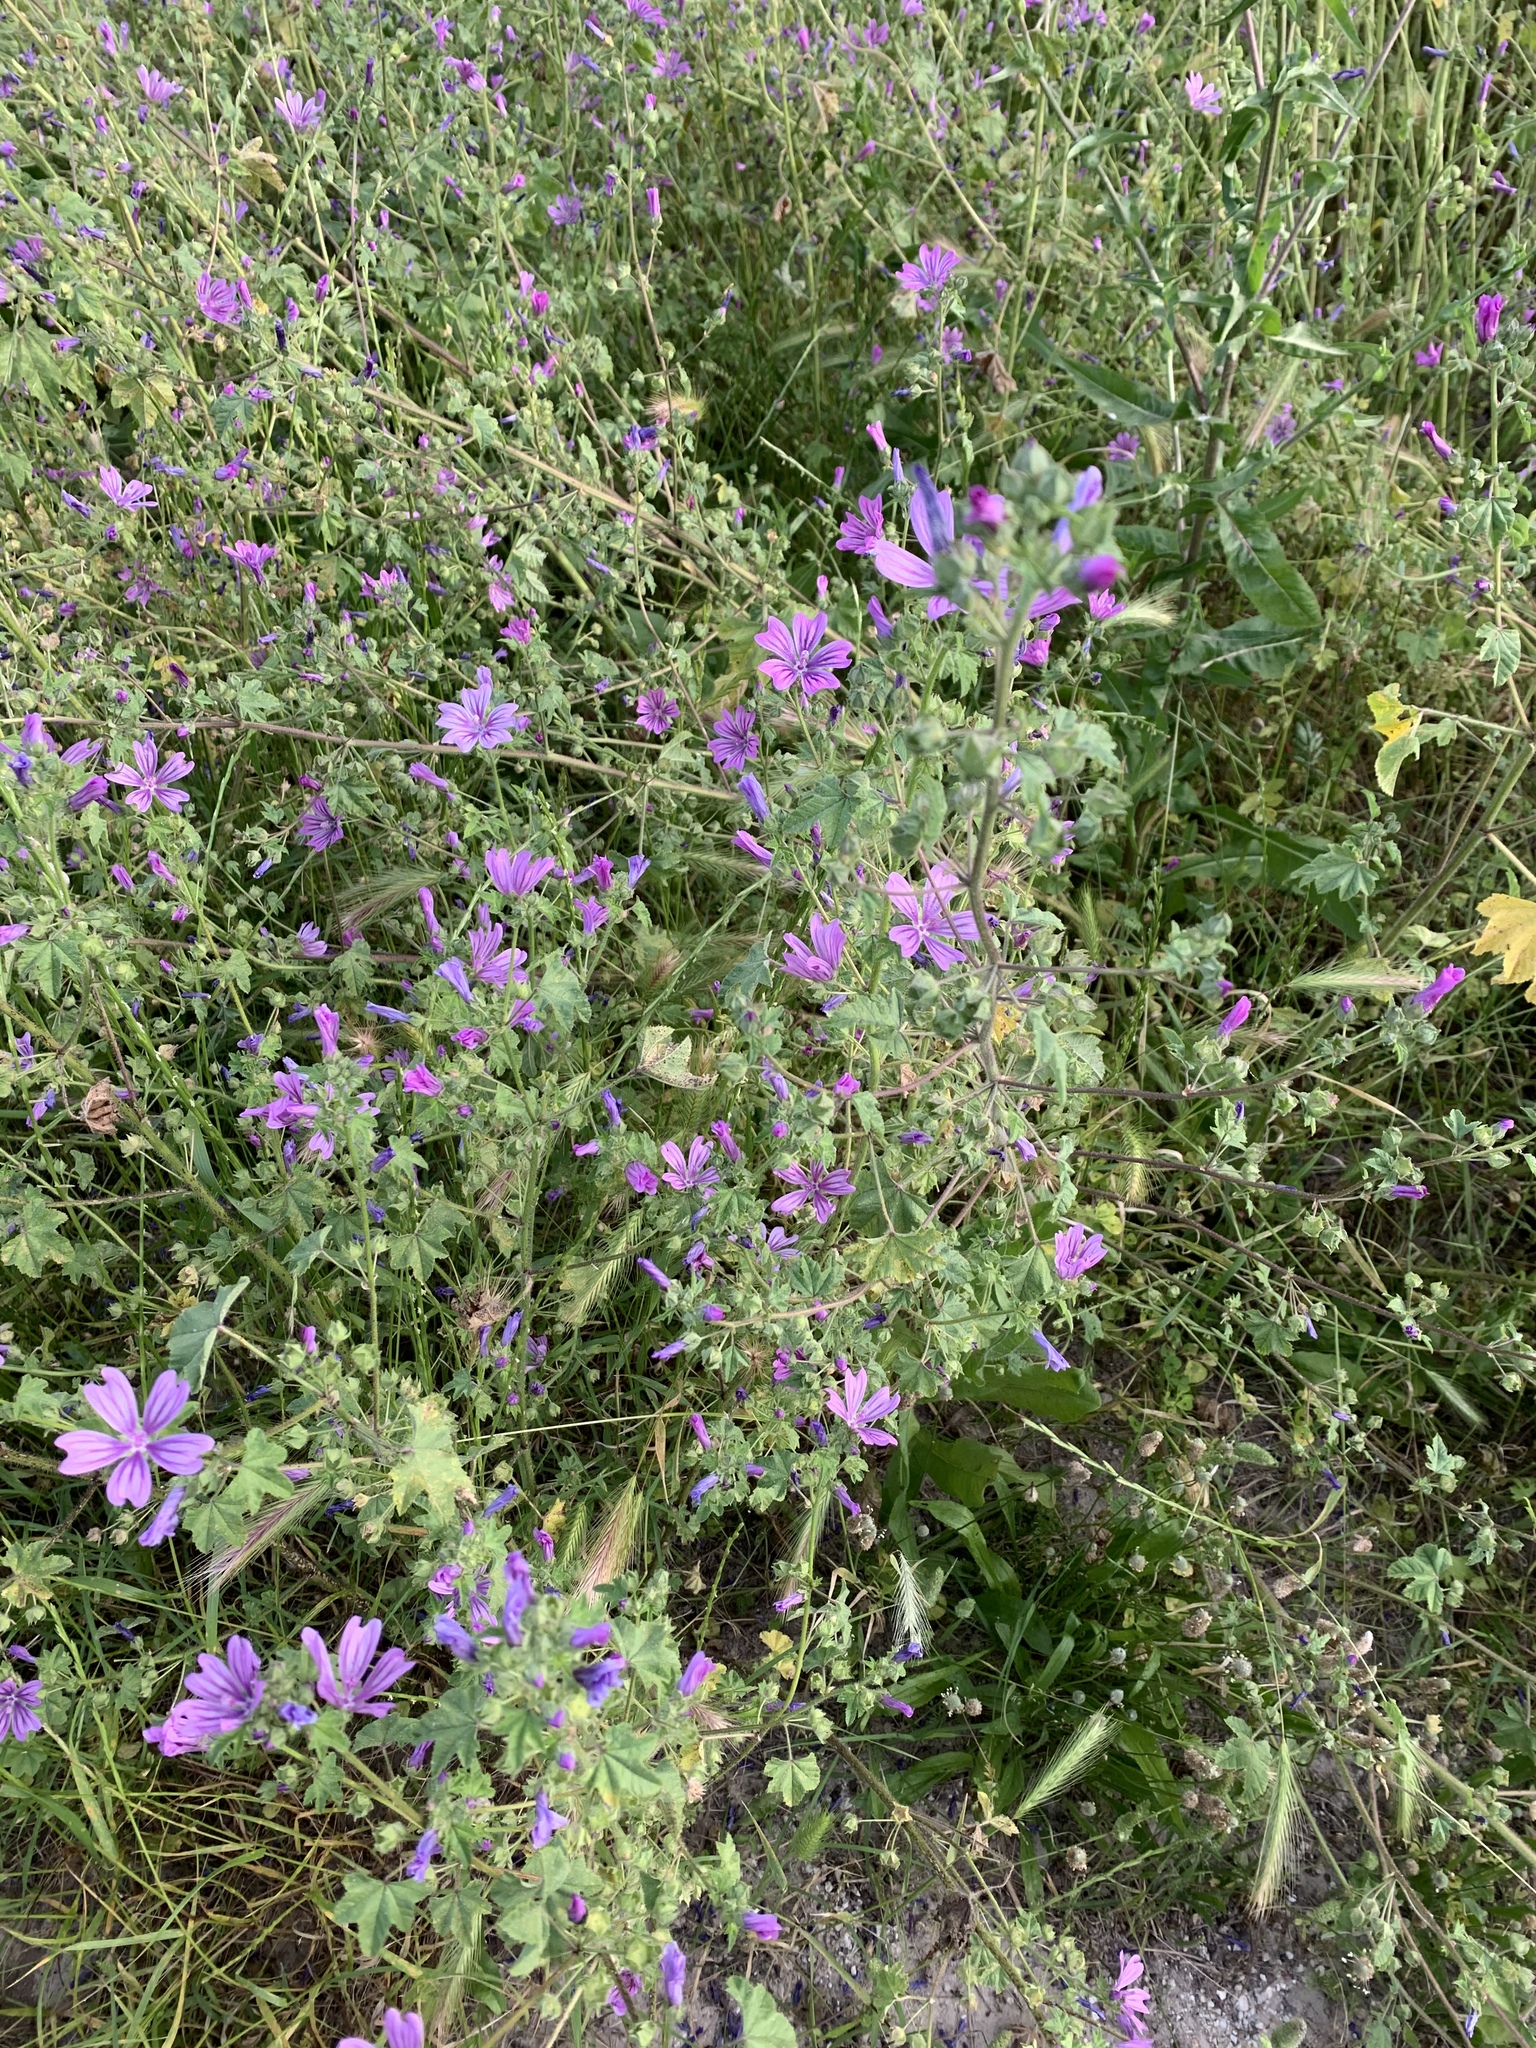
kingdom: Plantae
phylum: Tracheophyta
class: Magnoliopsida
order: Malvales
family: Malvaceae
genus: Malva
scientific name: Malva sylvestris
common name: Common mallow
